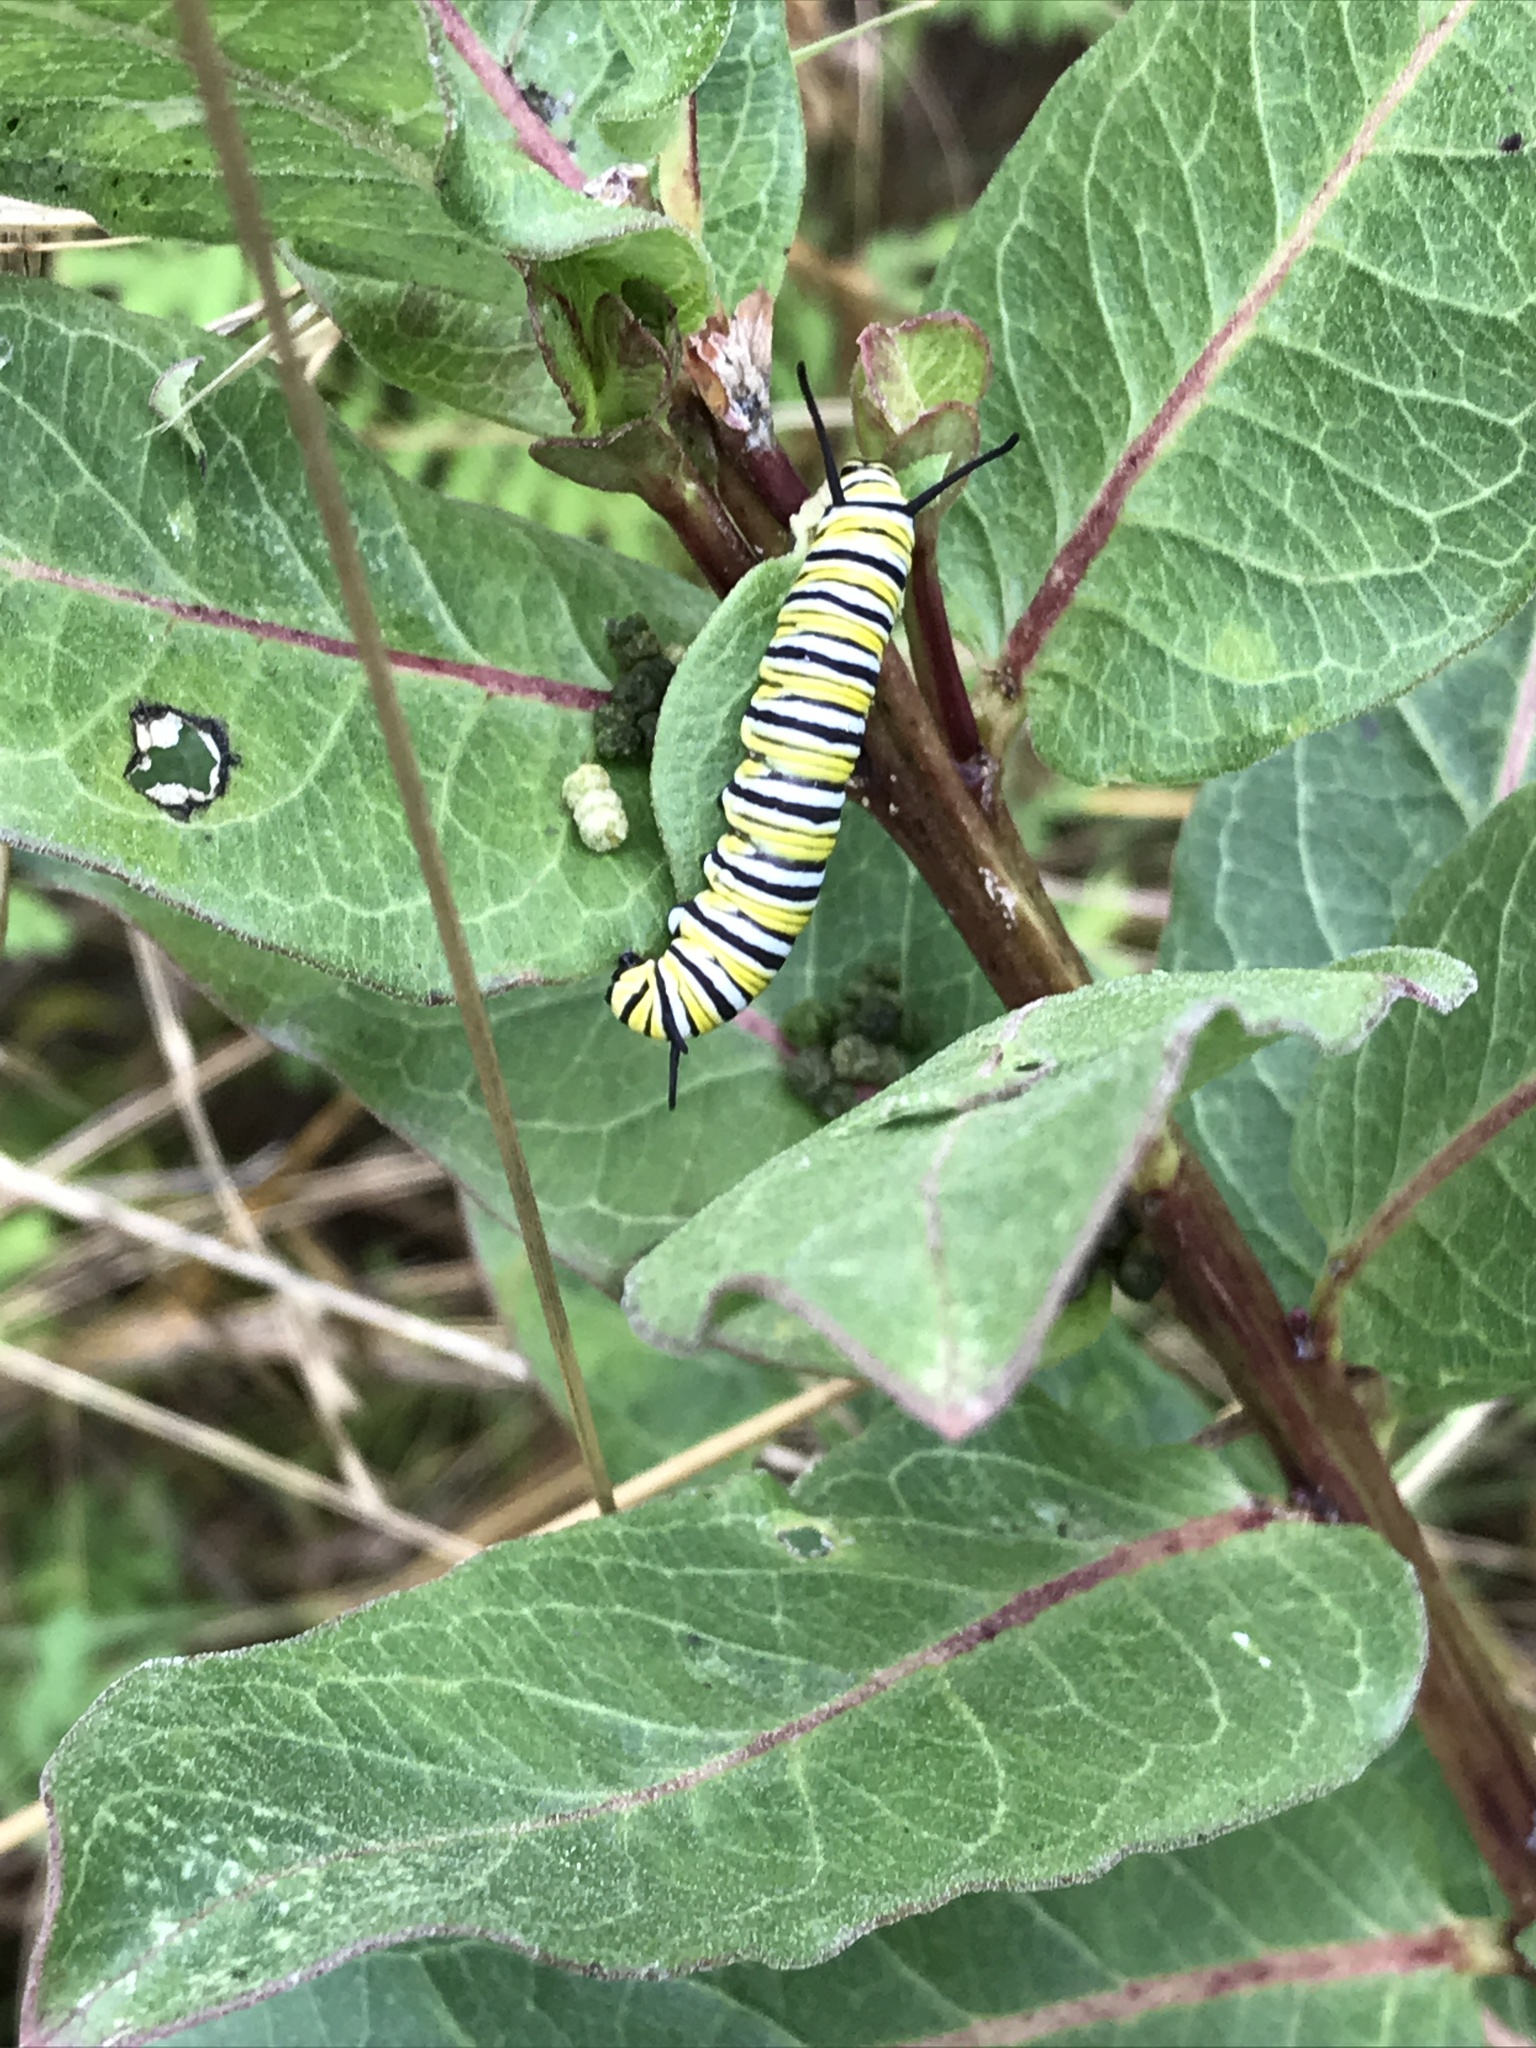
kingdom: Animalia
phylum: Arthropoda
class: Insecta
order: Lepidoptera
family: Nymphalidae
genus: Danaus
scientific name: Danaus plexippus
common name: Monarch
